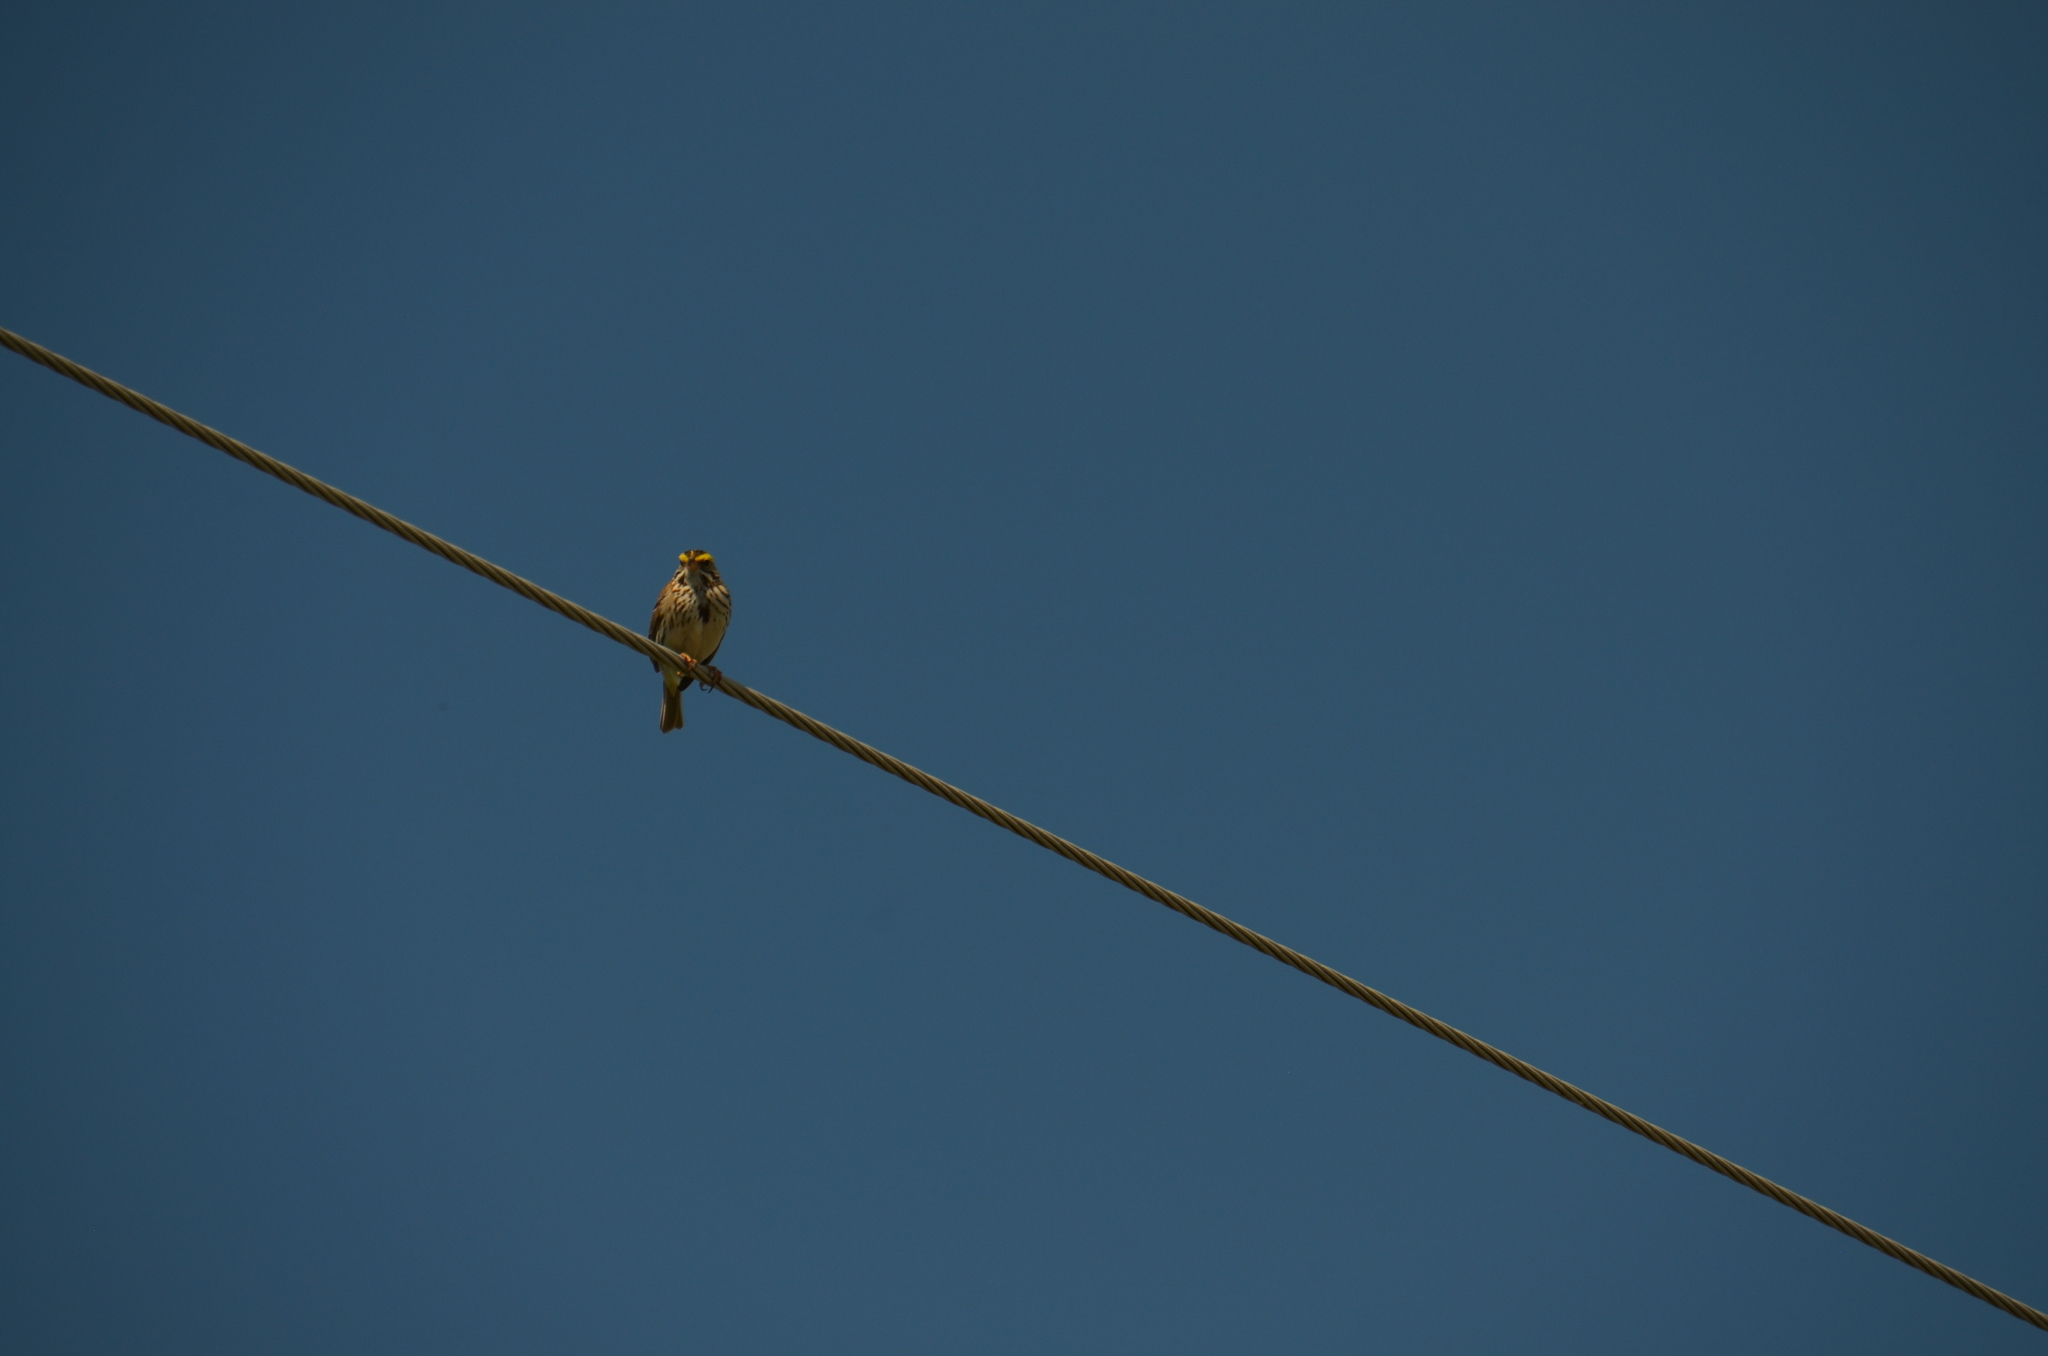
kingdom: Animalia
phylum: Chordata
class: Aves
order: Passeriformes
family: Passerellidae
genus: Passerculus
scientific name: Passerculus sandwichensis
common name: Savannah sparrow
